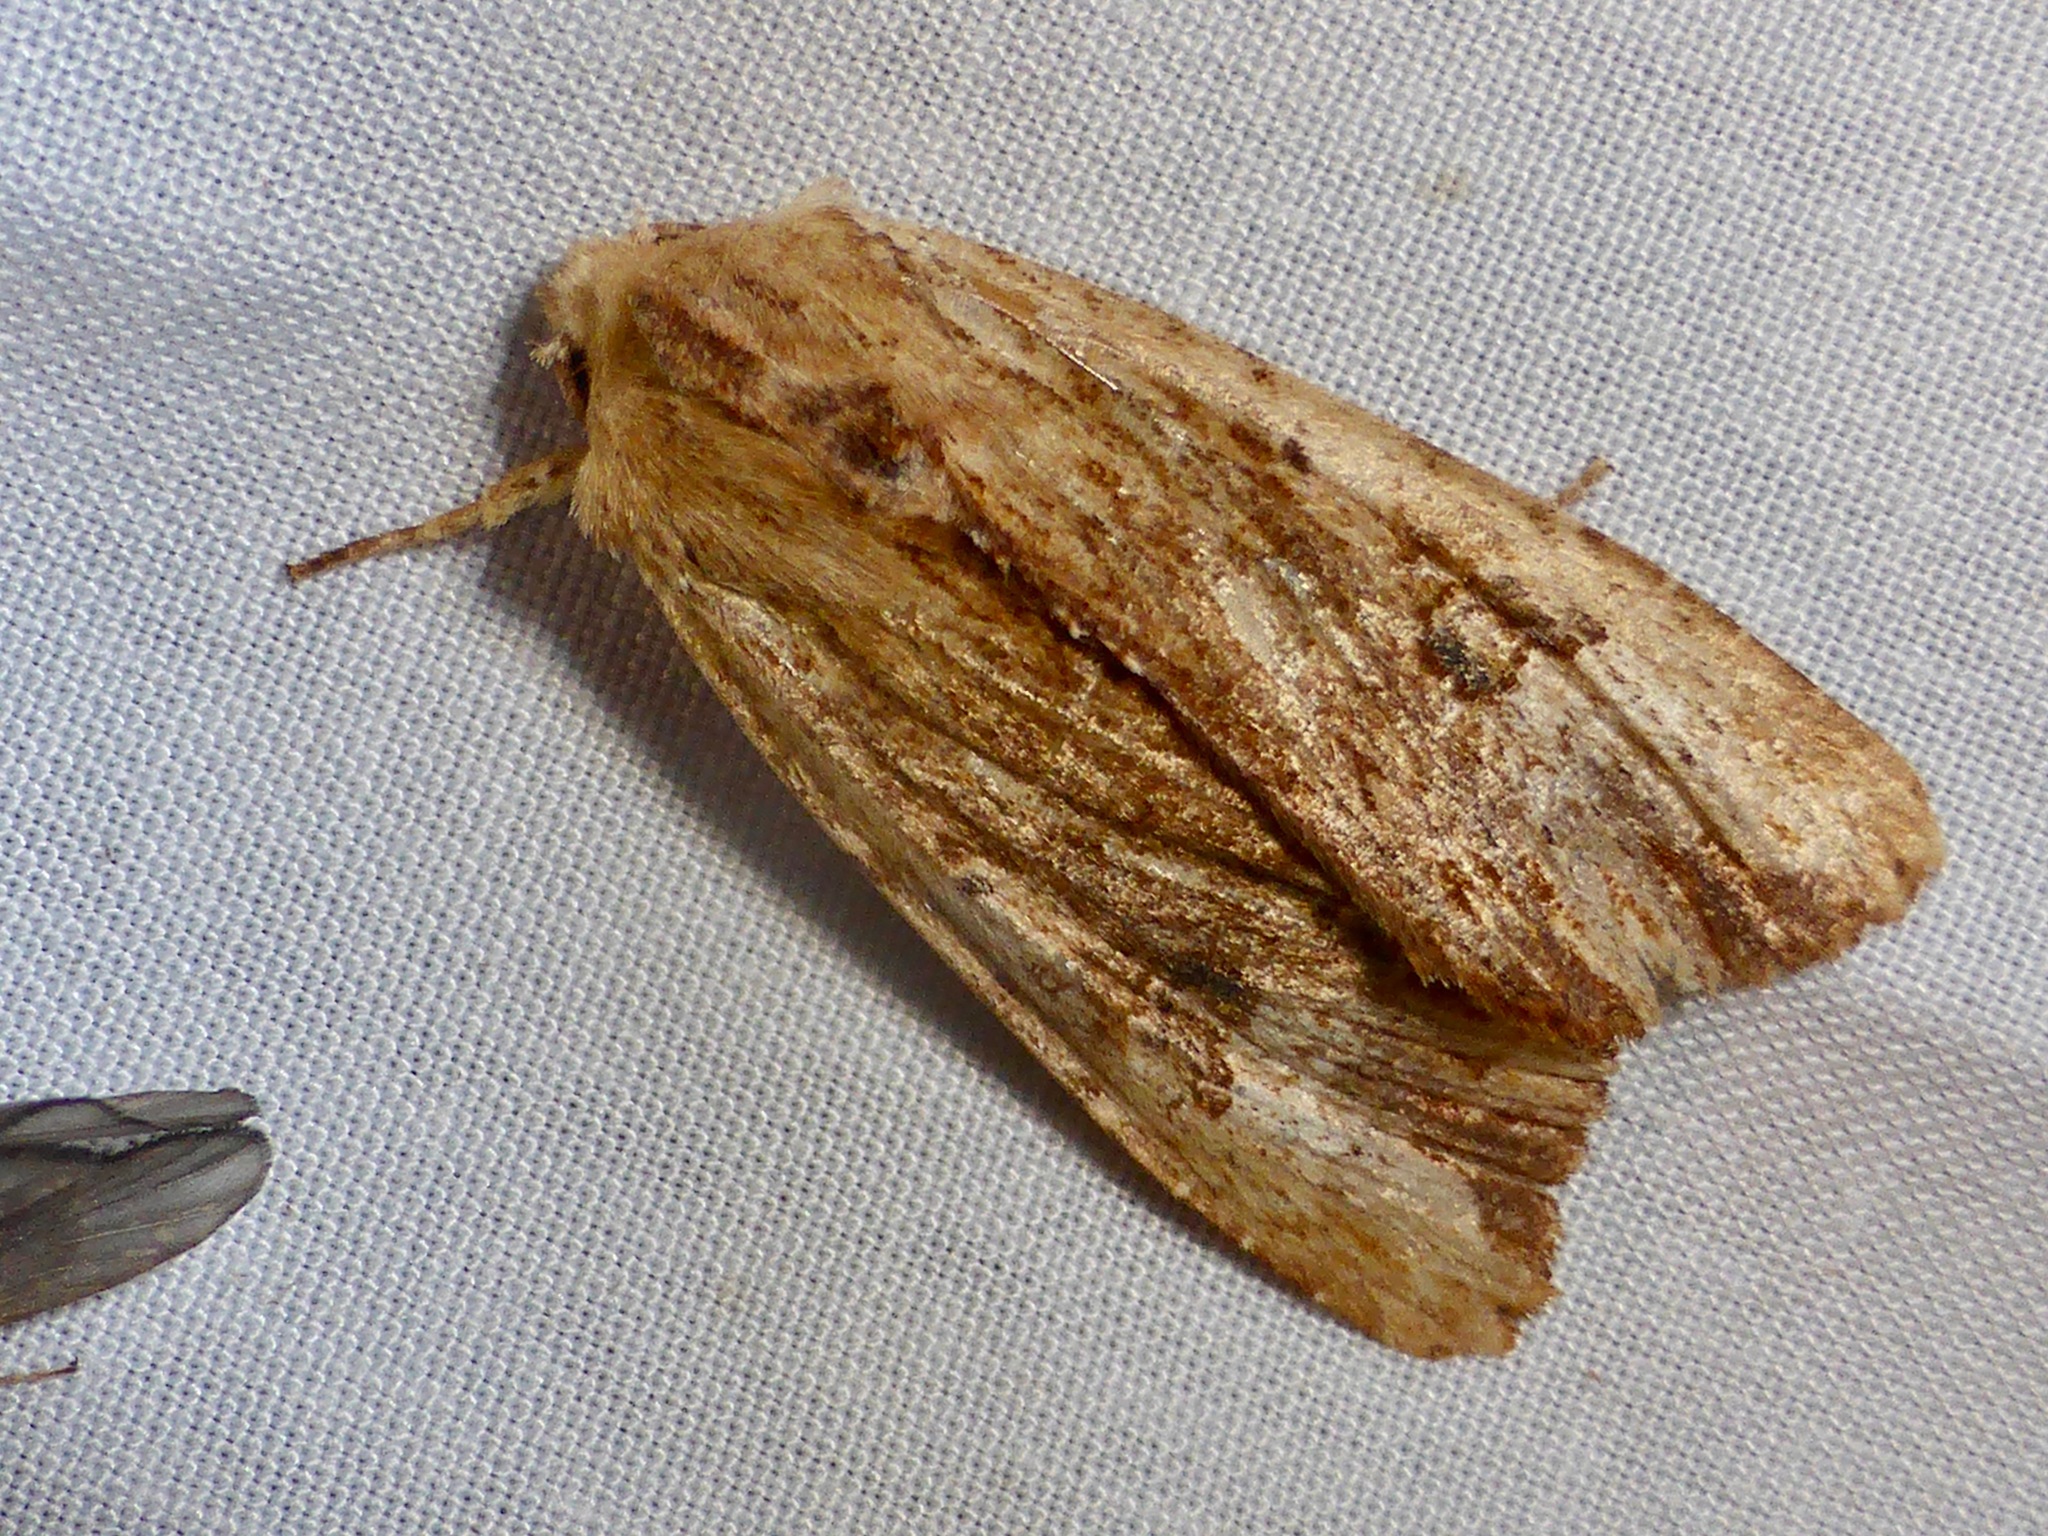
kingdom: Animalia
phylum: Arthropoda
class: Insecta
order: Lepidoptera
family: Noctuidae
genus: Ichneutica
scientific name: Ichneutica
